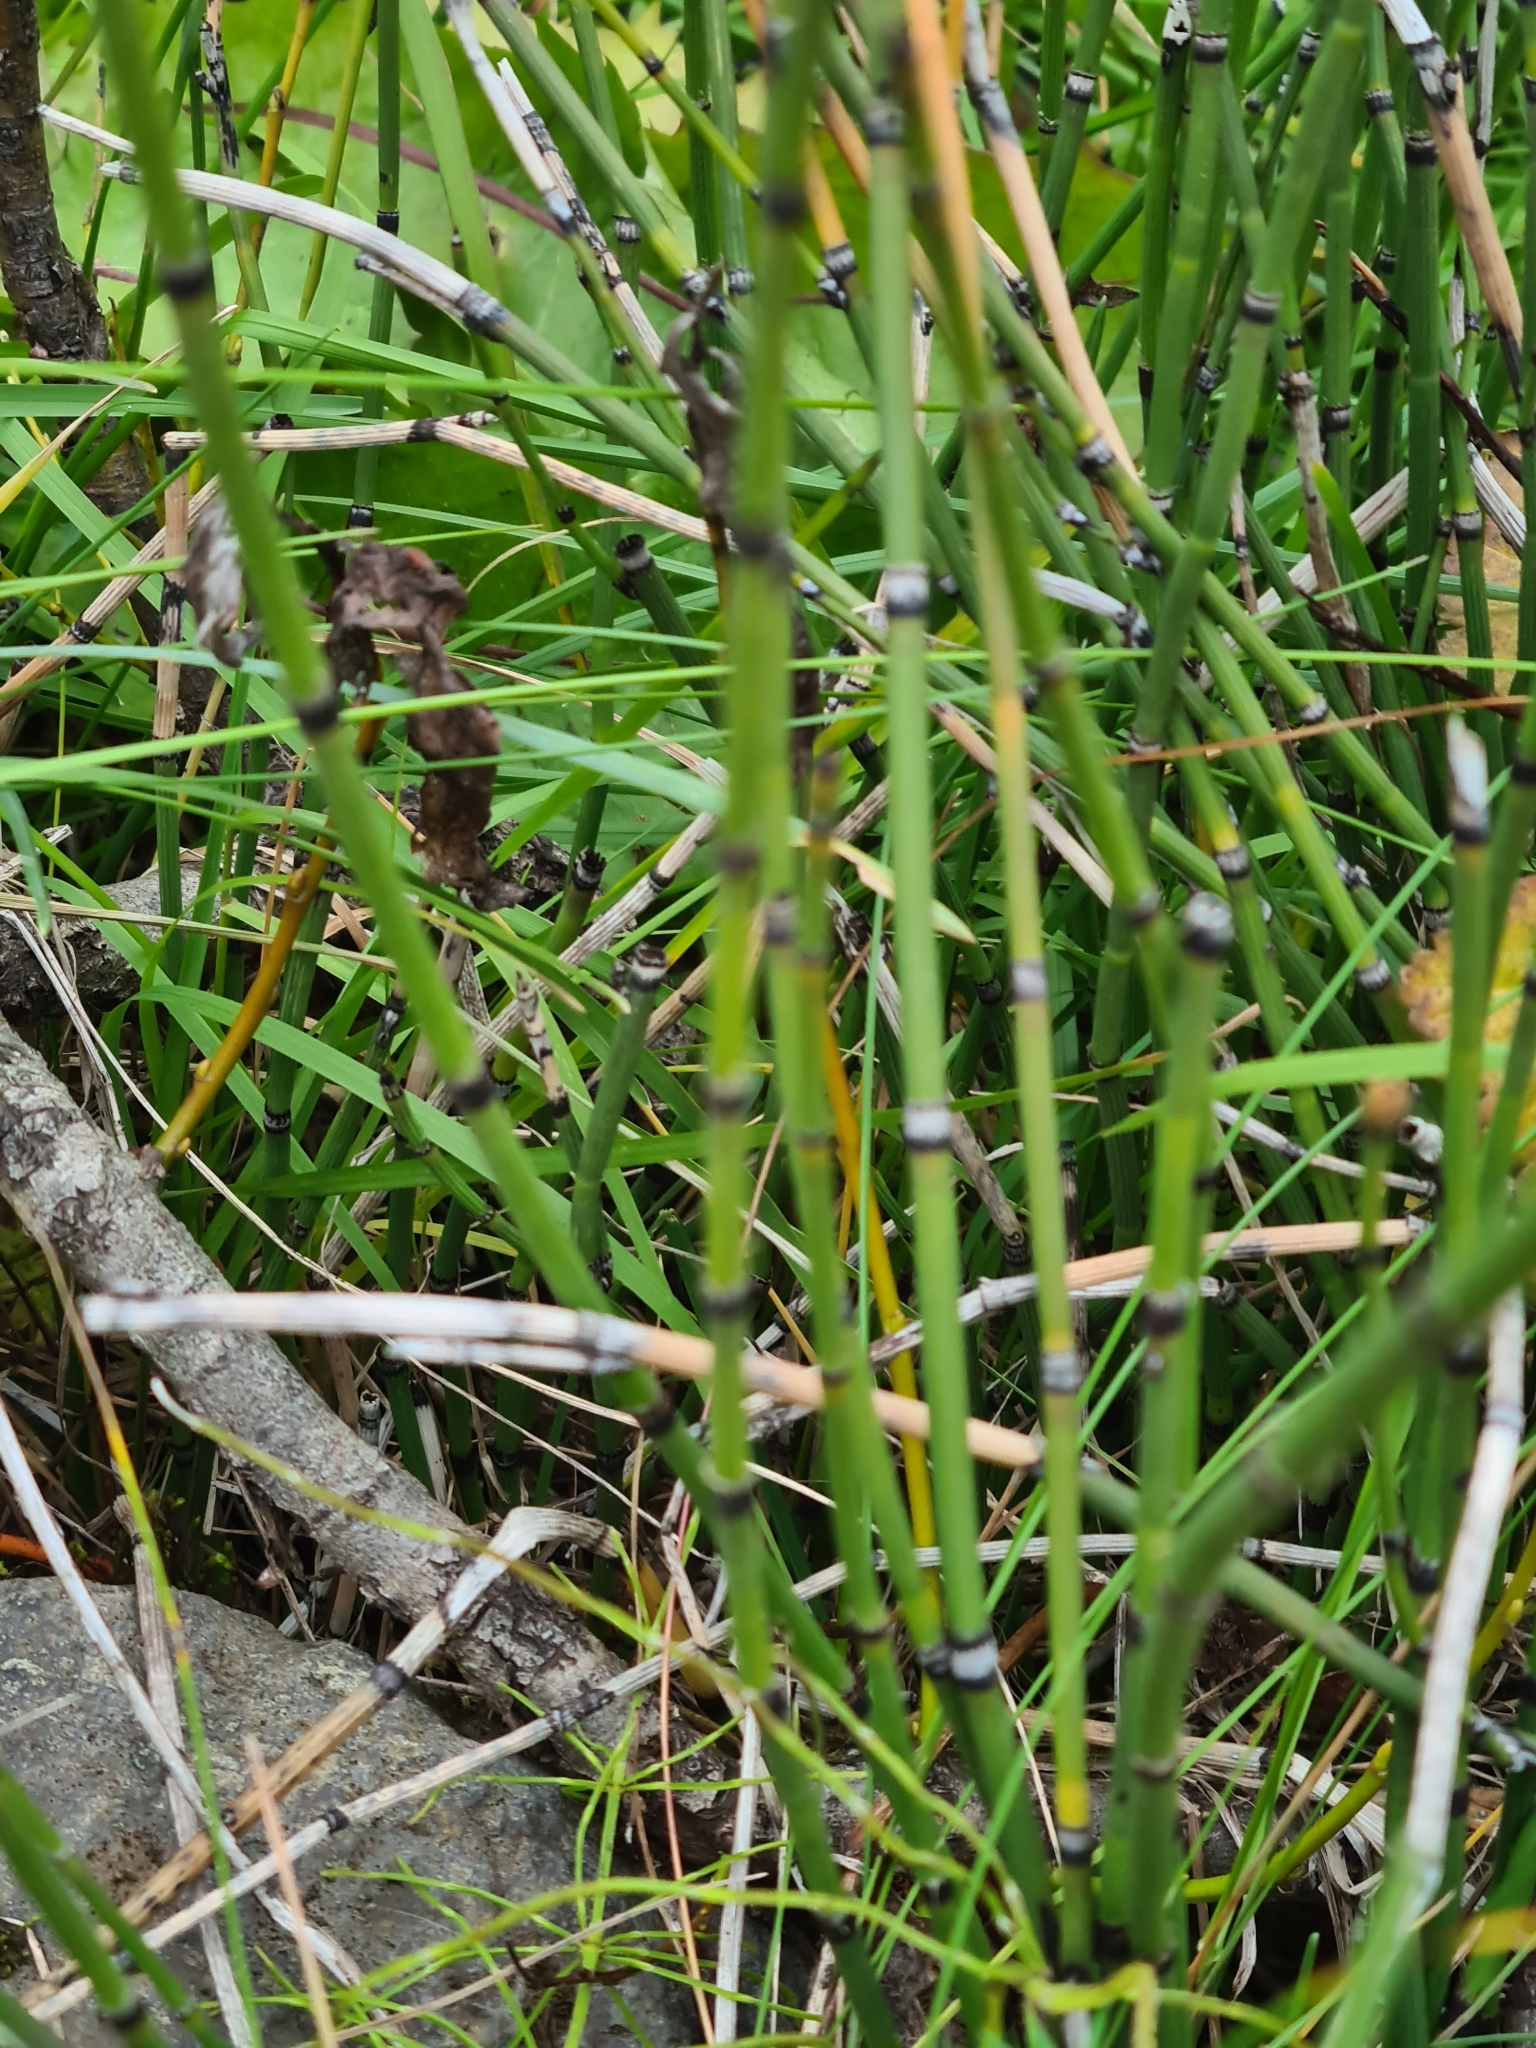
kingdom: Plantae
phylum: Tracheophyta
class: Polypodiopsida
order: Equisetales
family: Equisetaceae
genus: Equisetum
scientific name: Equisetum hyemale
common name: Rough horsetail
